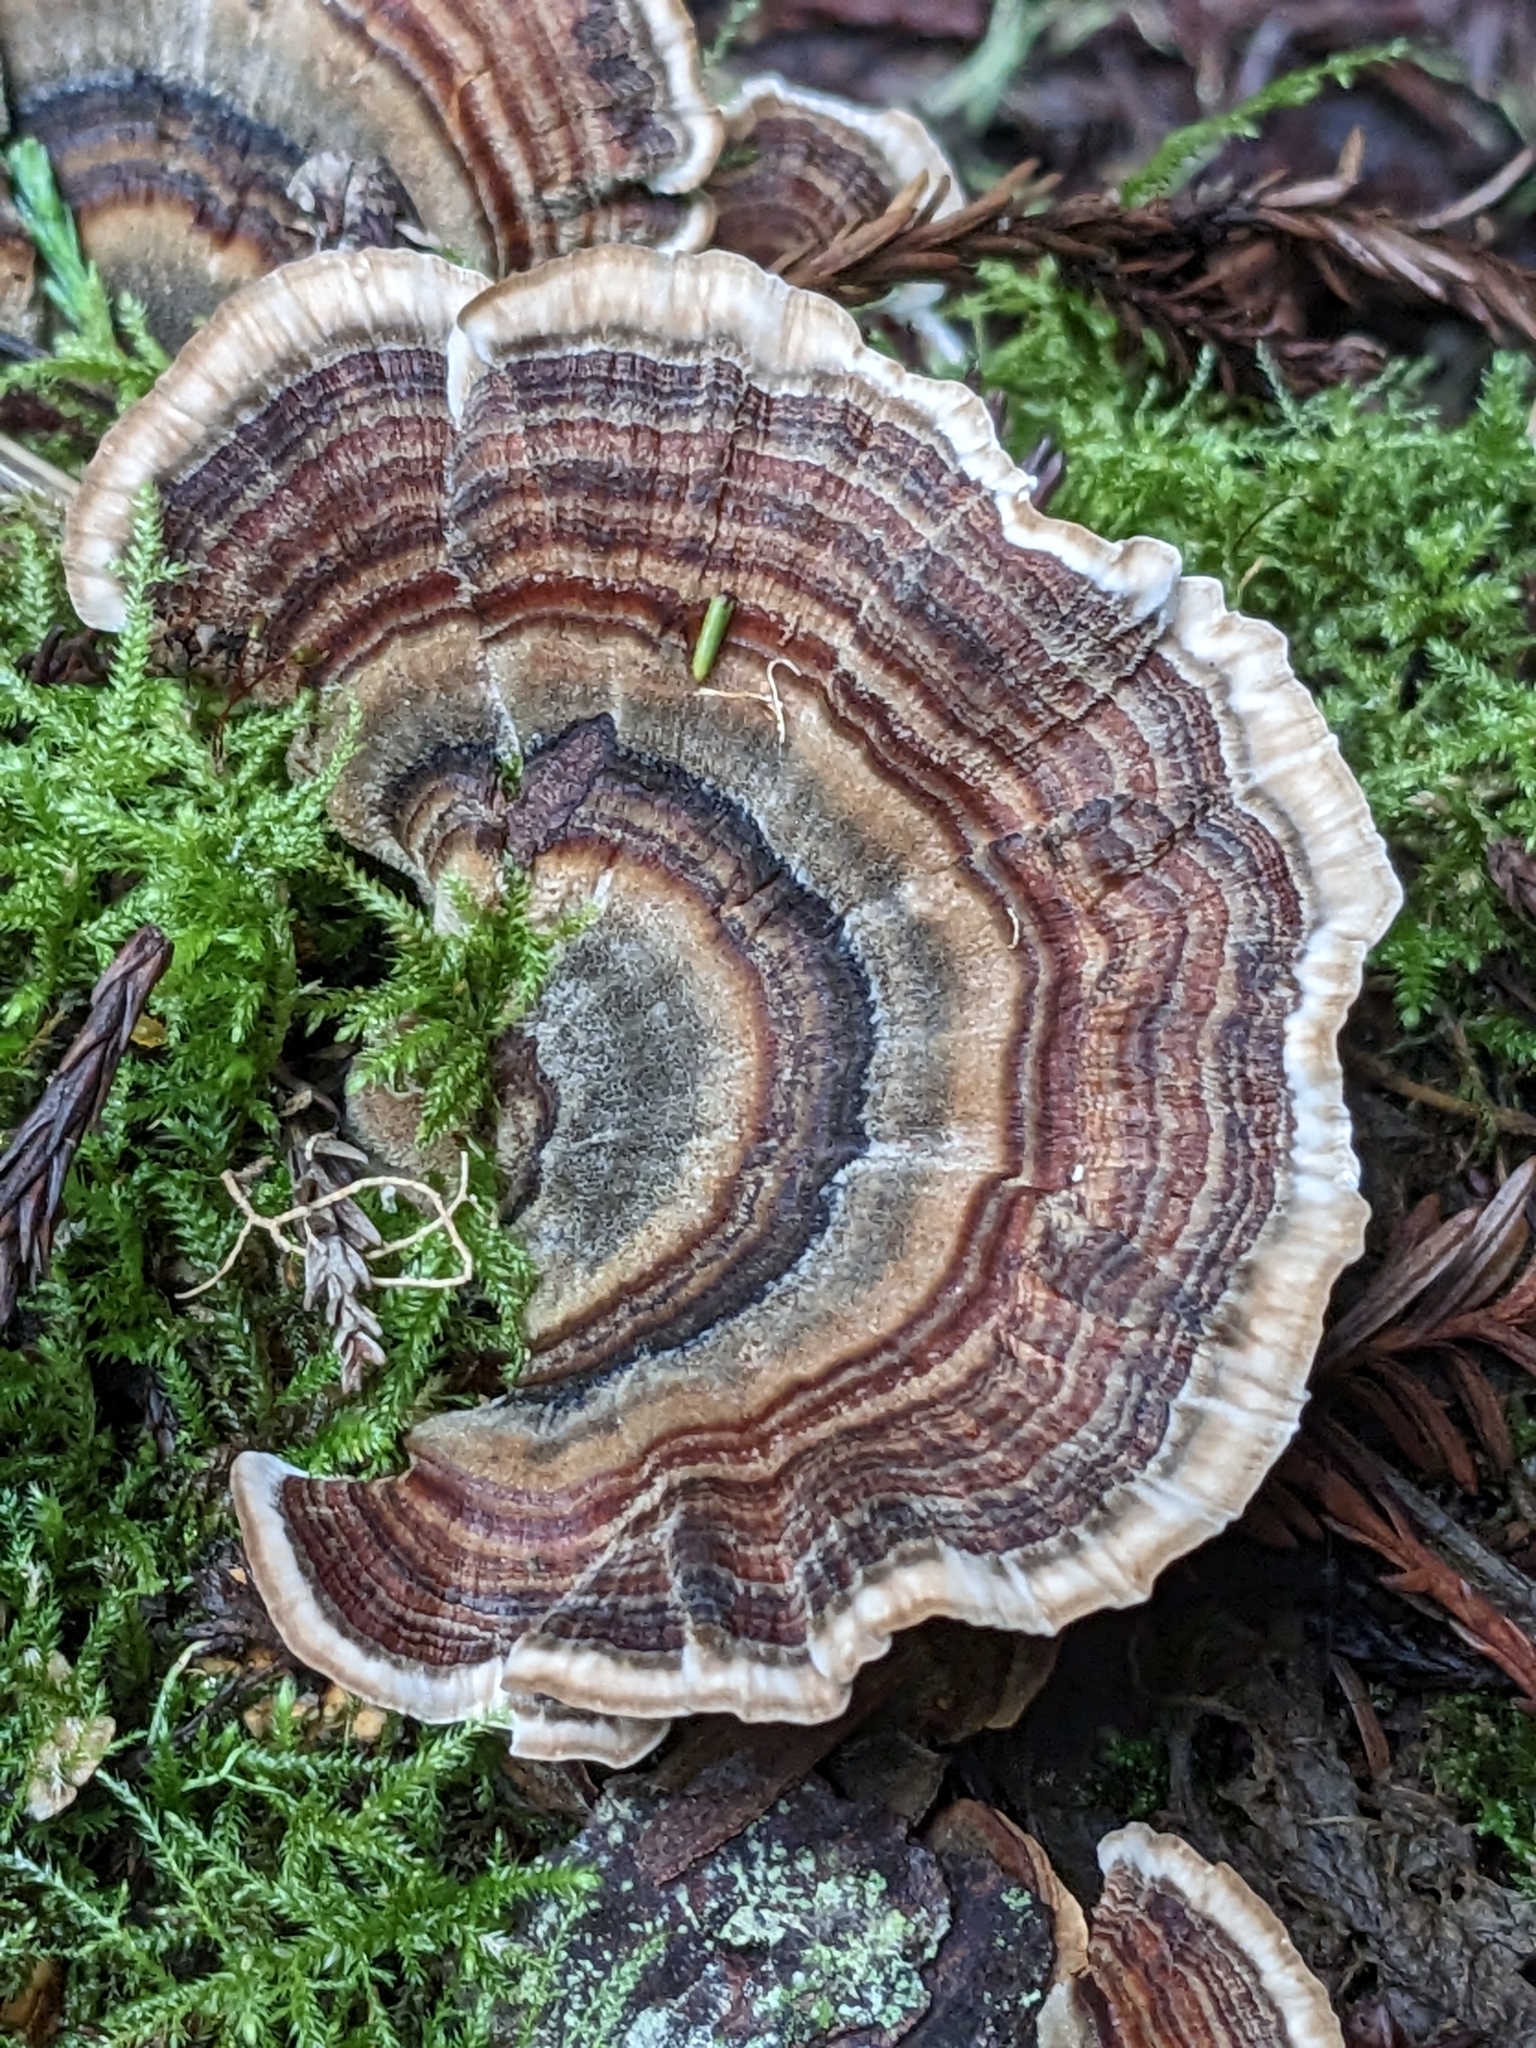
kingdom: Fungi
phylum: Basidiomycota
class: Agaricomycetes
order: Polyporales
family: Polyporaceae
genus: Trametes
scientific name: Trametes versicolor
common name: Turkeytail
